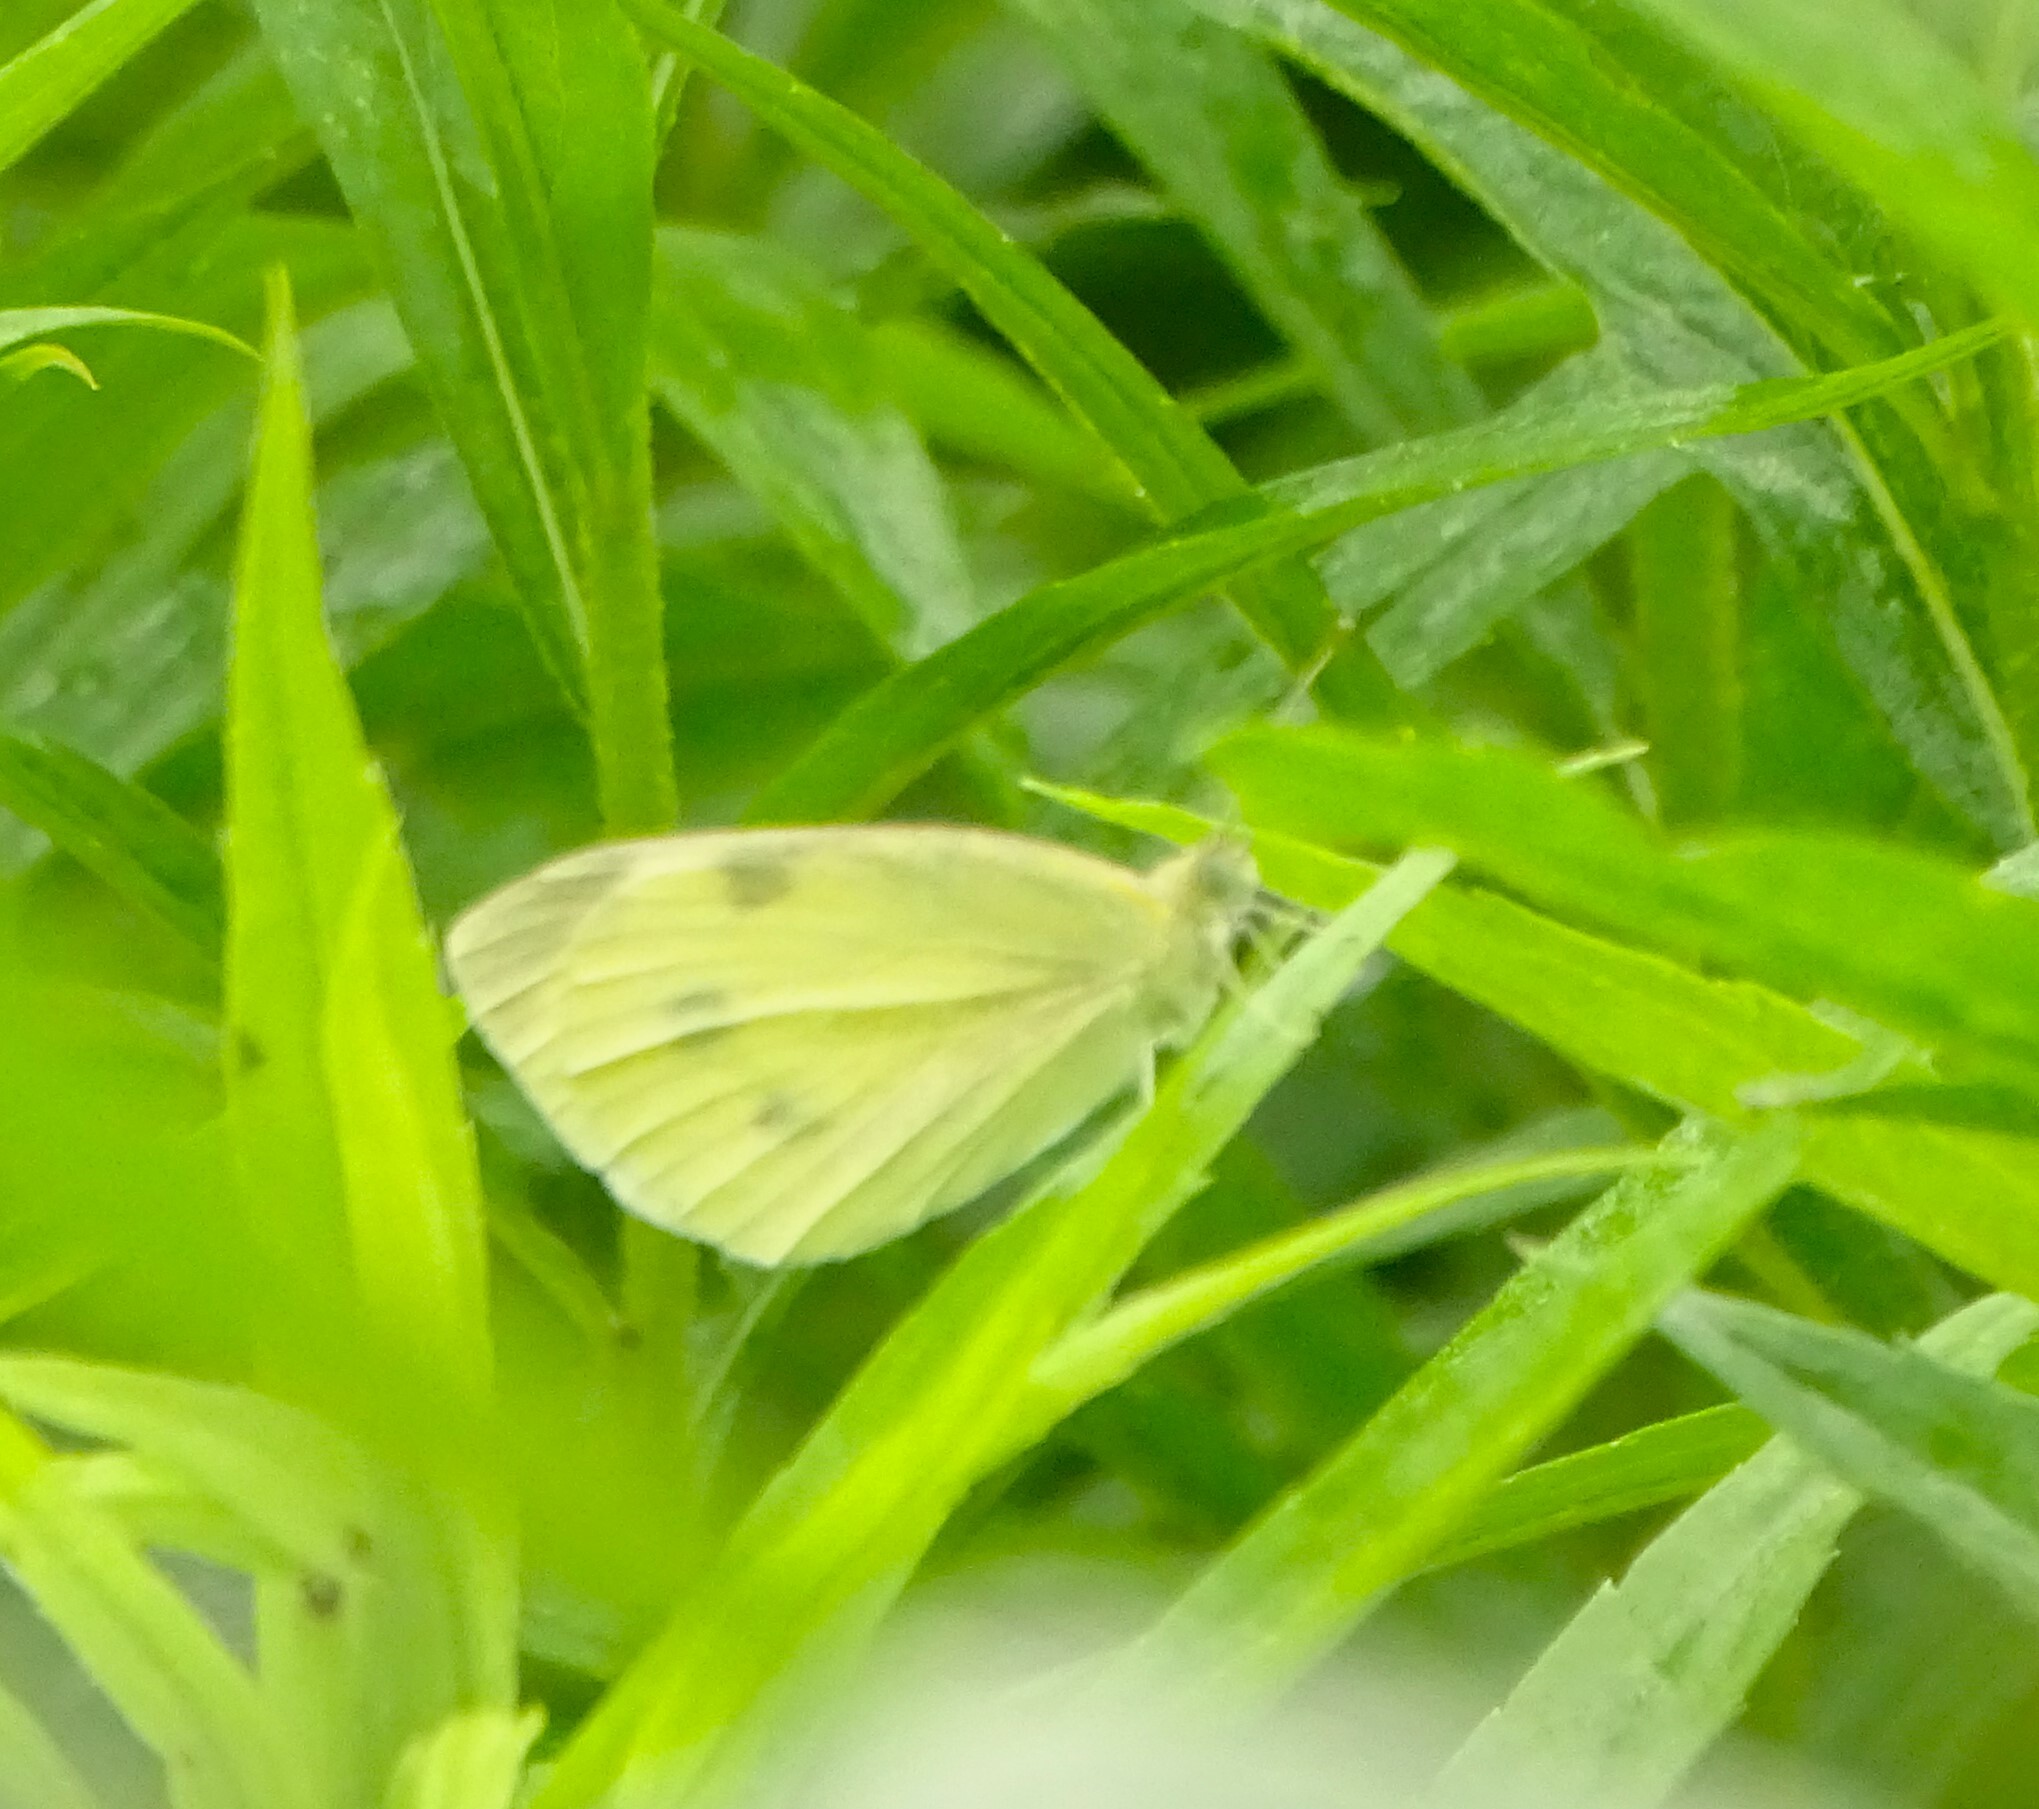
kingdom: Animalia
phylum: Arthropoda
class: Insecta
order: Lepidoptera
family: Pieridae
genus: Pieris
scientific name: Pieris rapae
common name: Small white
